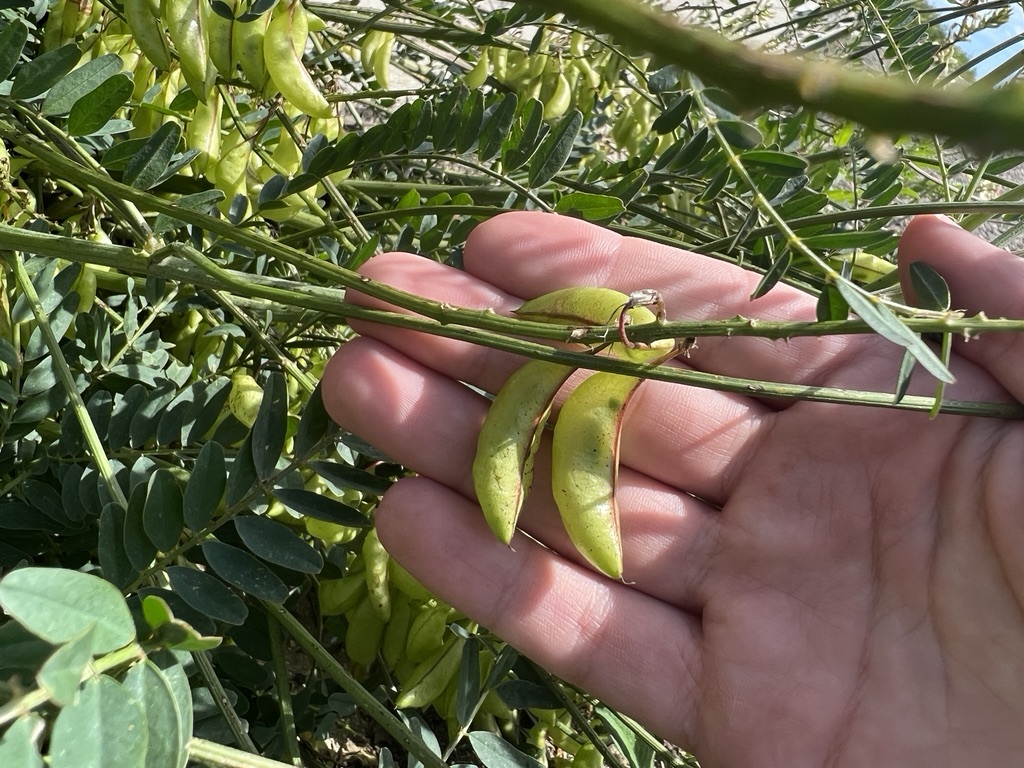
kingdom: Plantae
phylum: Tracheophyta
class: Magnoliopsida
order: Fabales
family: Fabaceae
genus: Astragalus
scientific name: Astragalus trichopodus
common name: Santa barbara milk-vetch
